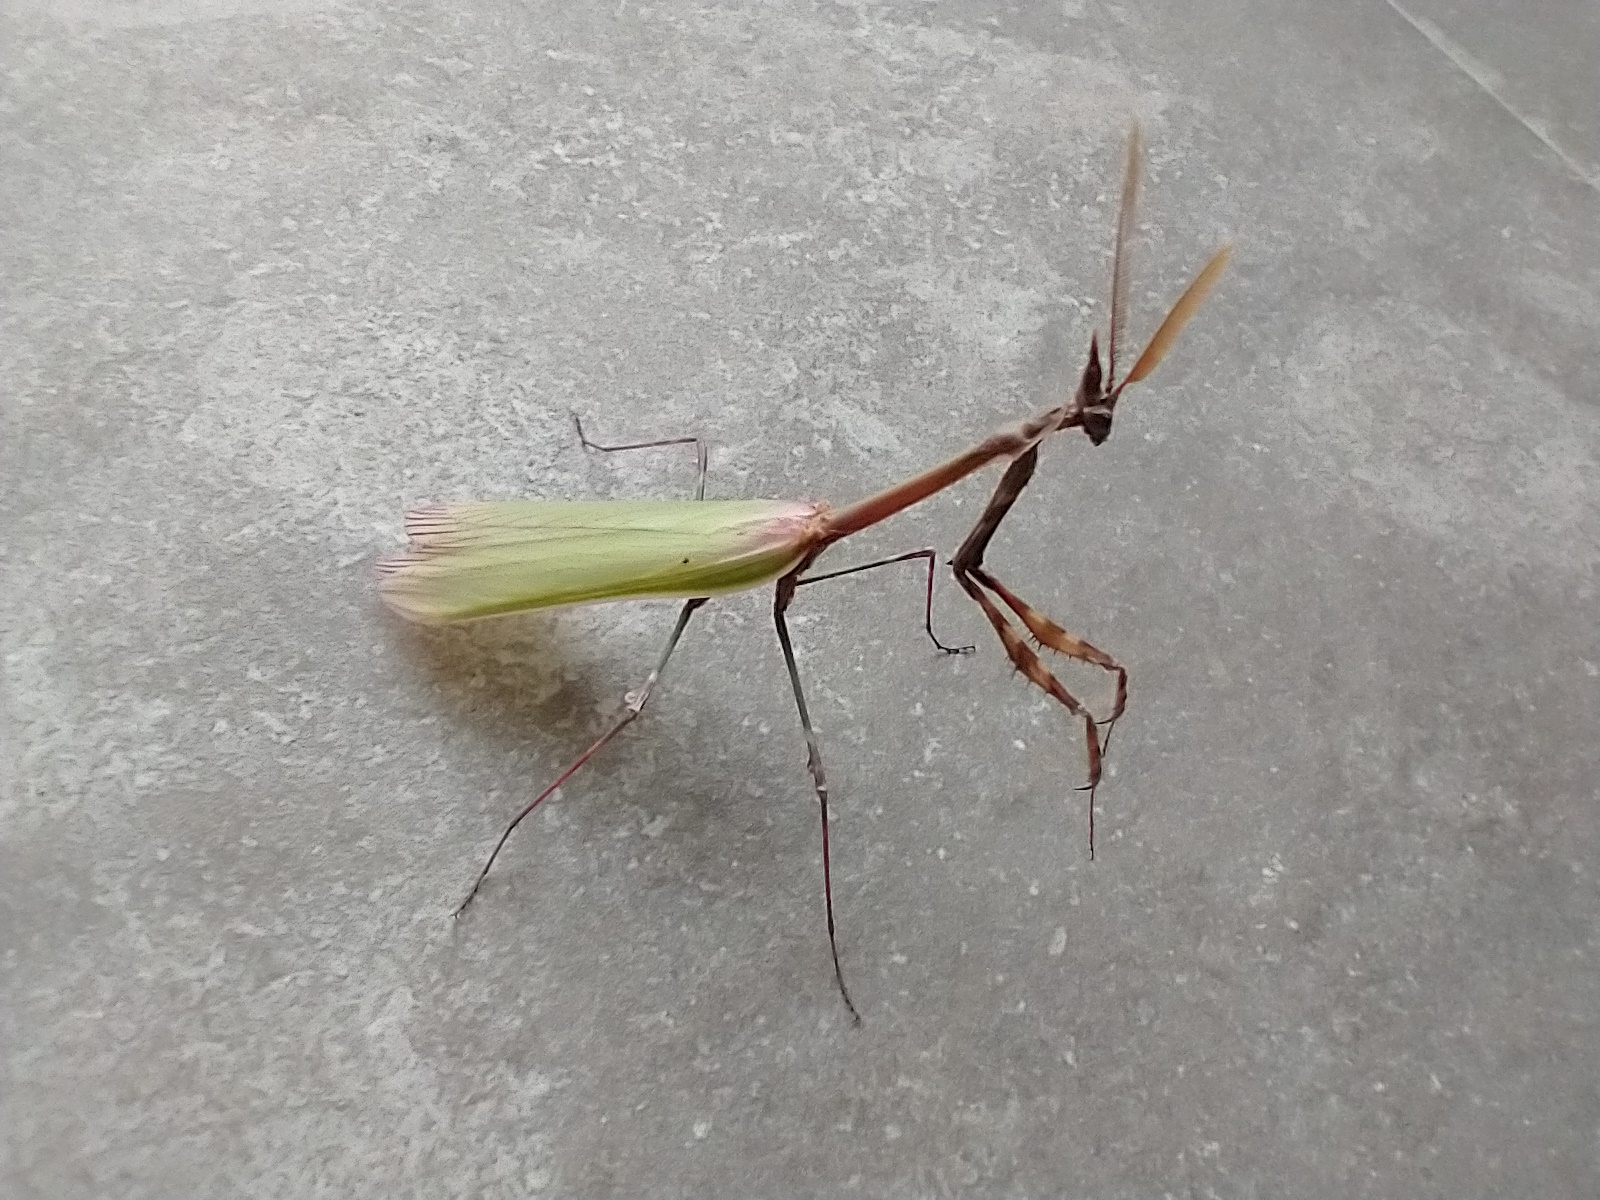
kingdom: Animalia
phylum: Arthropoda
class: Insecta
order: Mantodea
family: Empusidae
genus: Empusa
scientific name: Empusa pennata
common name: Conehead mantis
